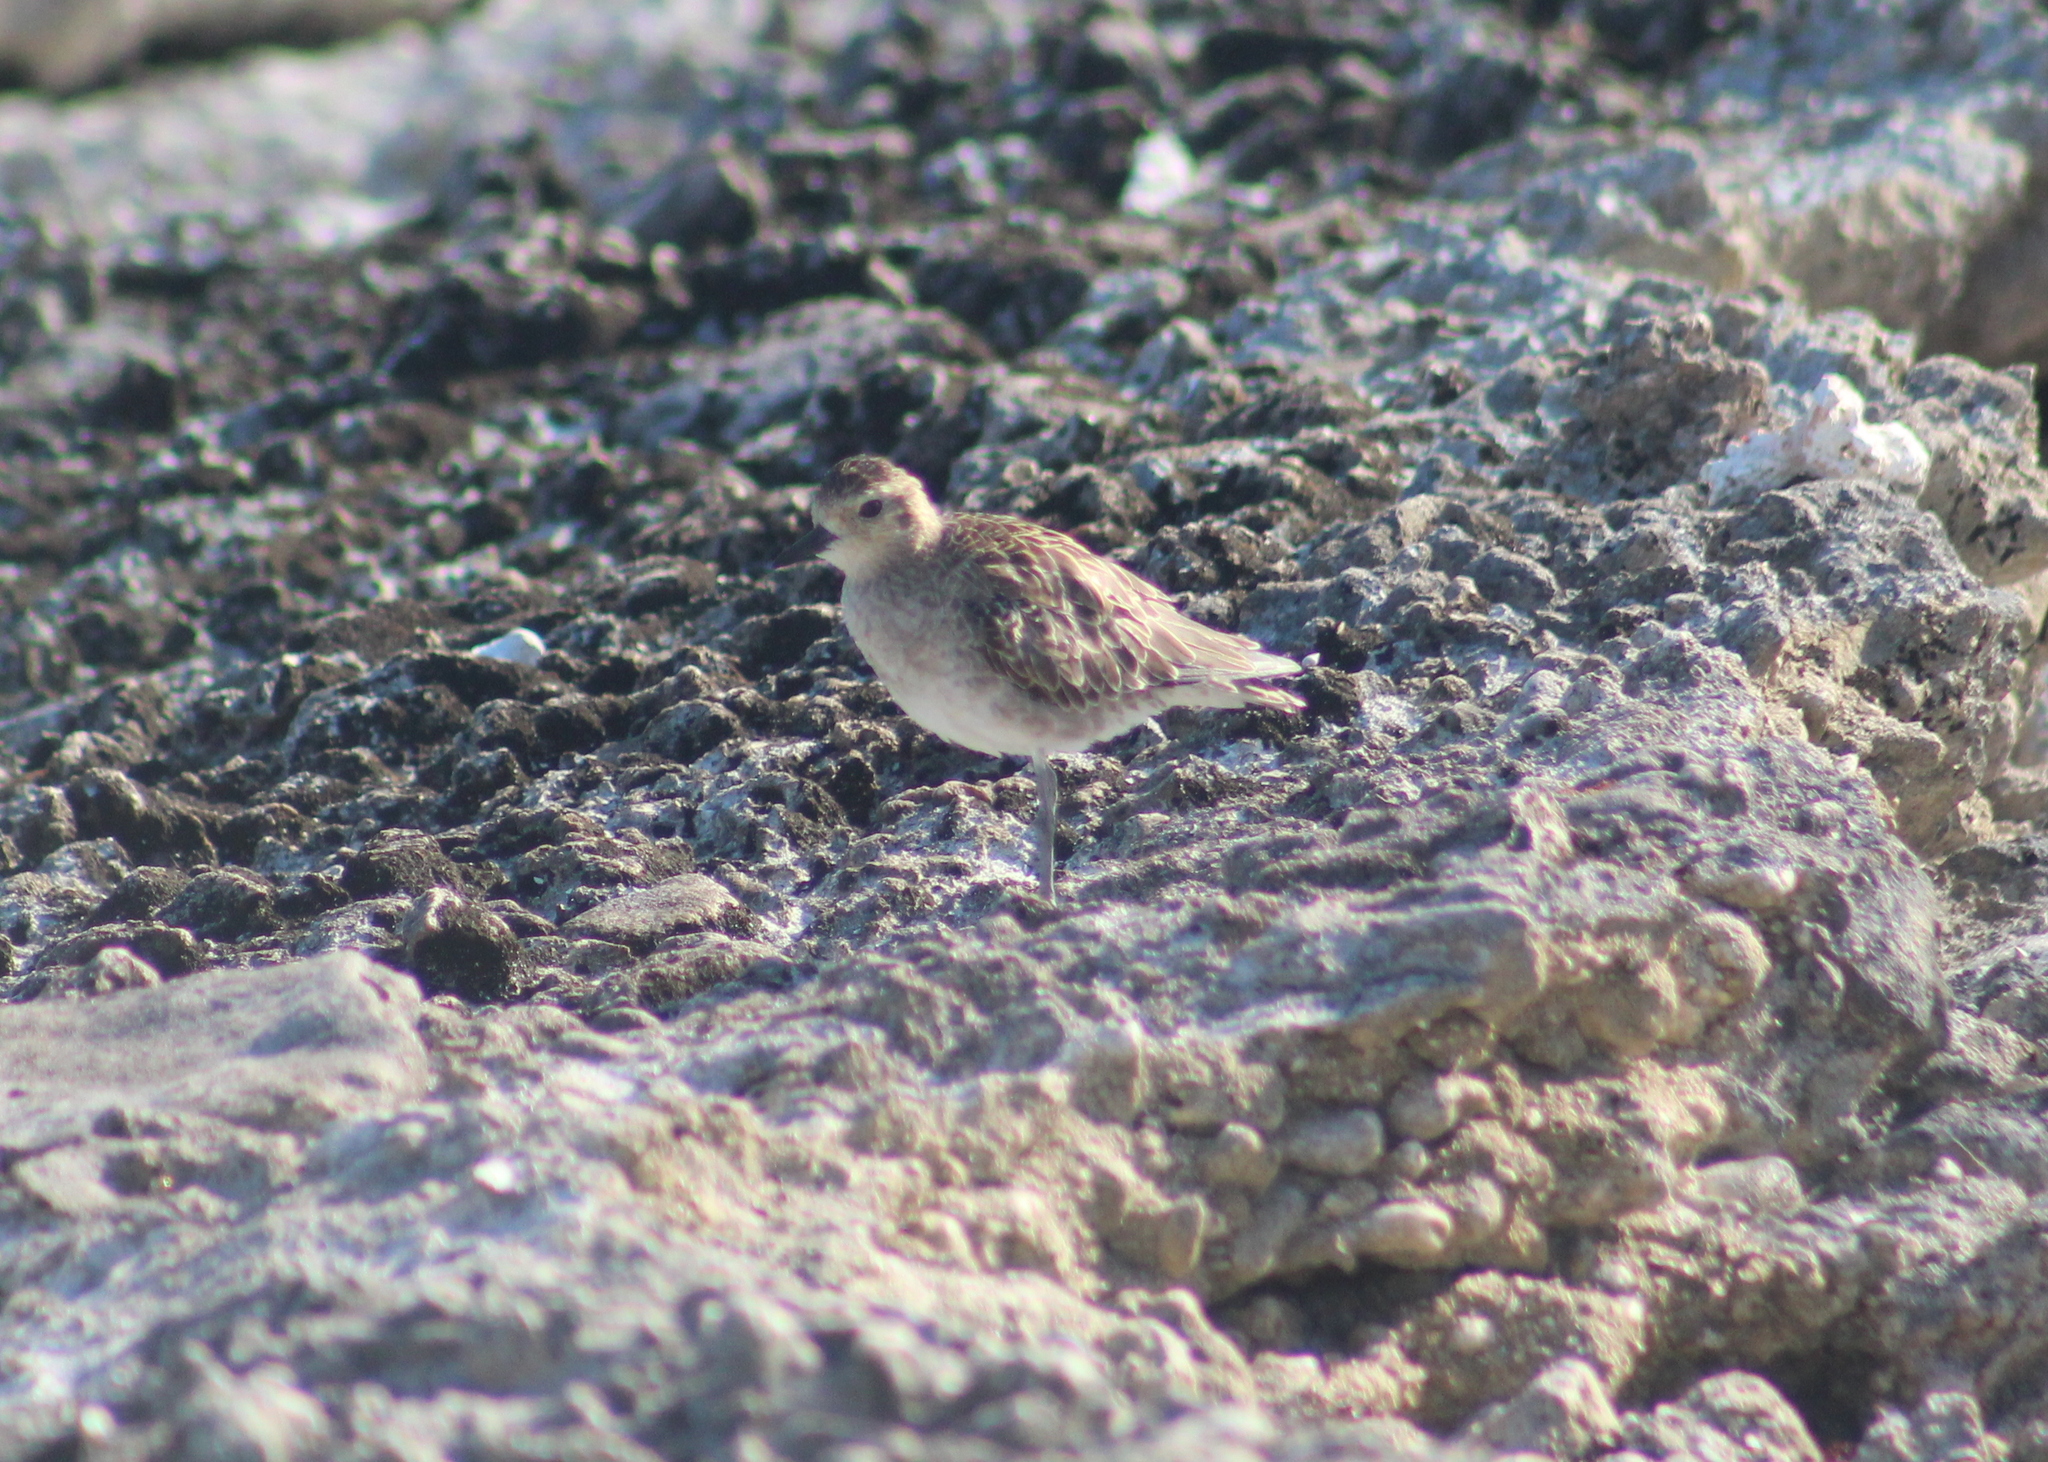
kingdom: Animalia
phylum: Chordata
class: Aves
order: Charadriiformes
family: Charadriidae
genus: Pluvialis
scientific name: Pluvialis fulva
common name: Pacific golden plover
